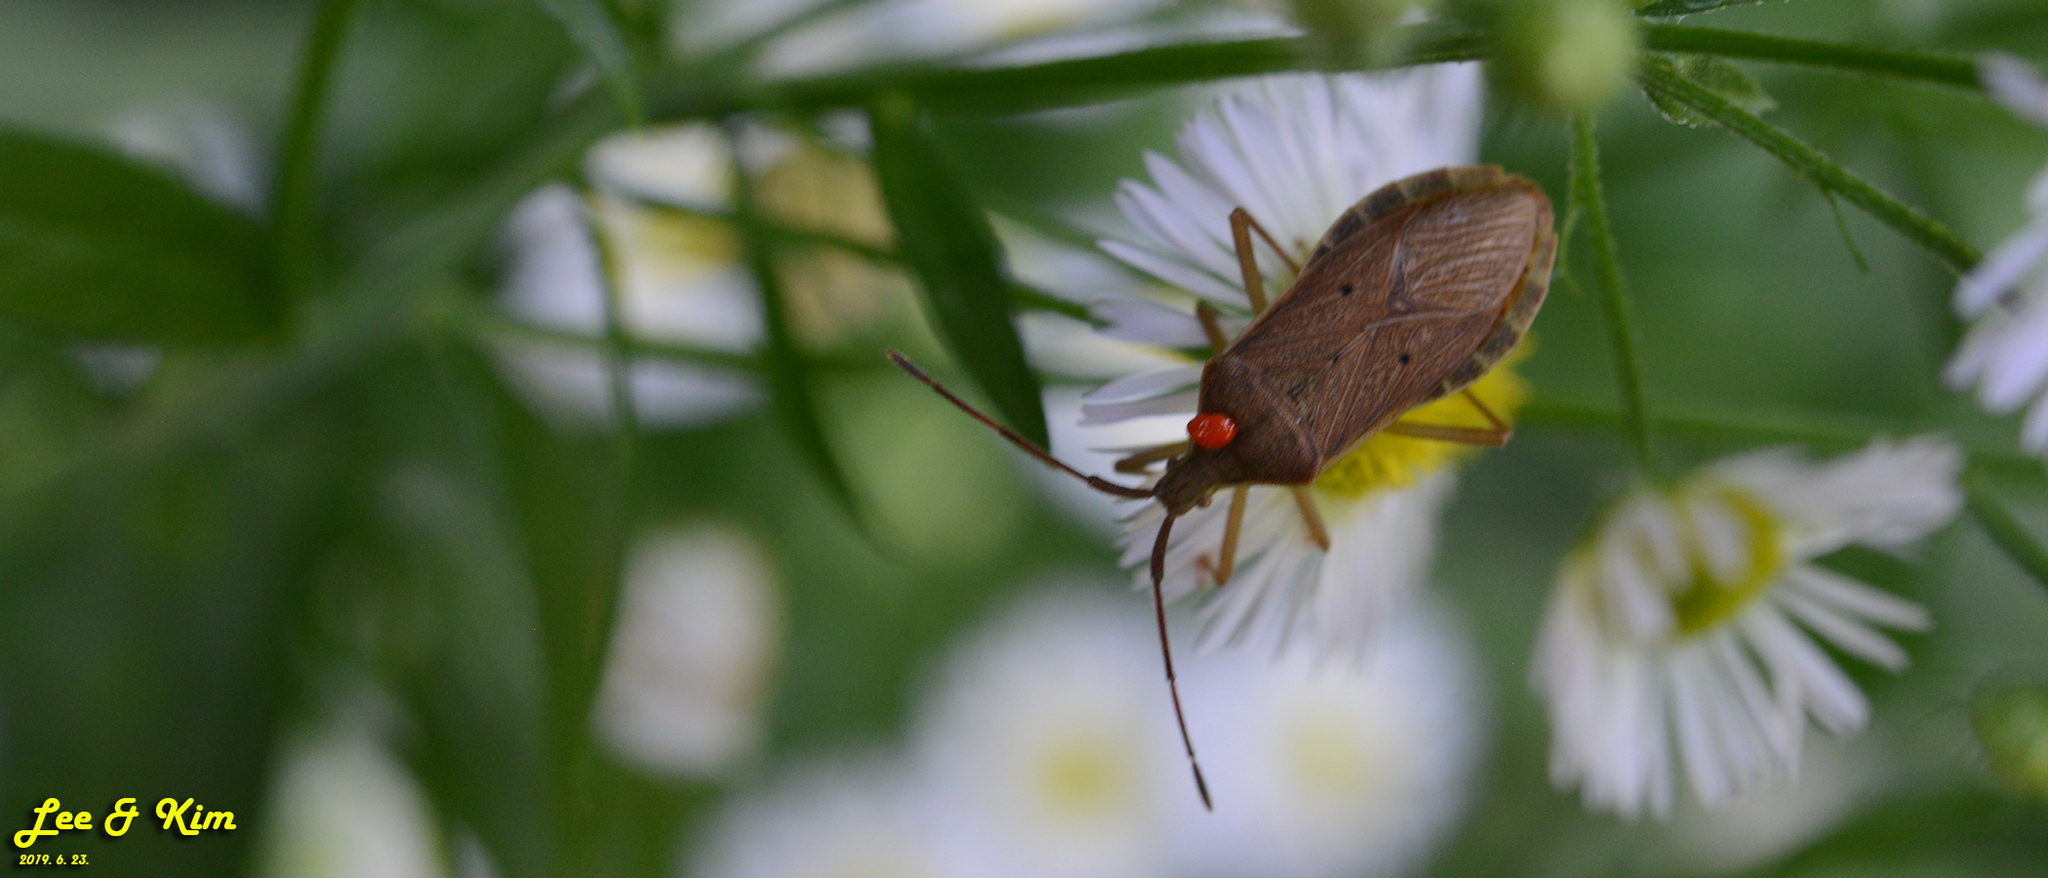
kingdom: Animalia
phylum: Arthropoda
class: Insecta
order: Hemiptera
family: Coreidae
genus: Homoeocerus
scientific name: Homoeocerus unipunctatus
